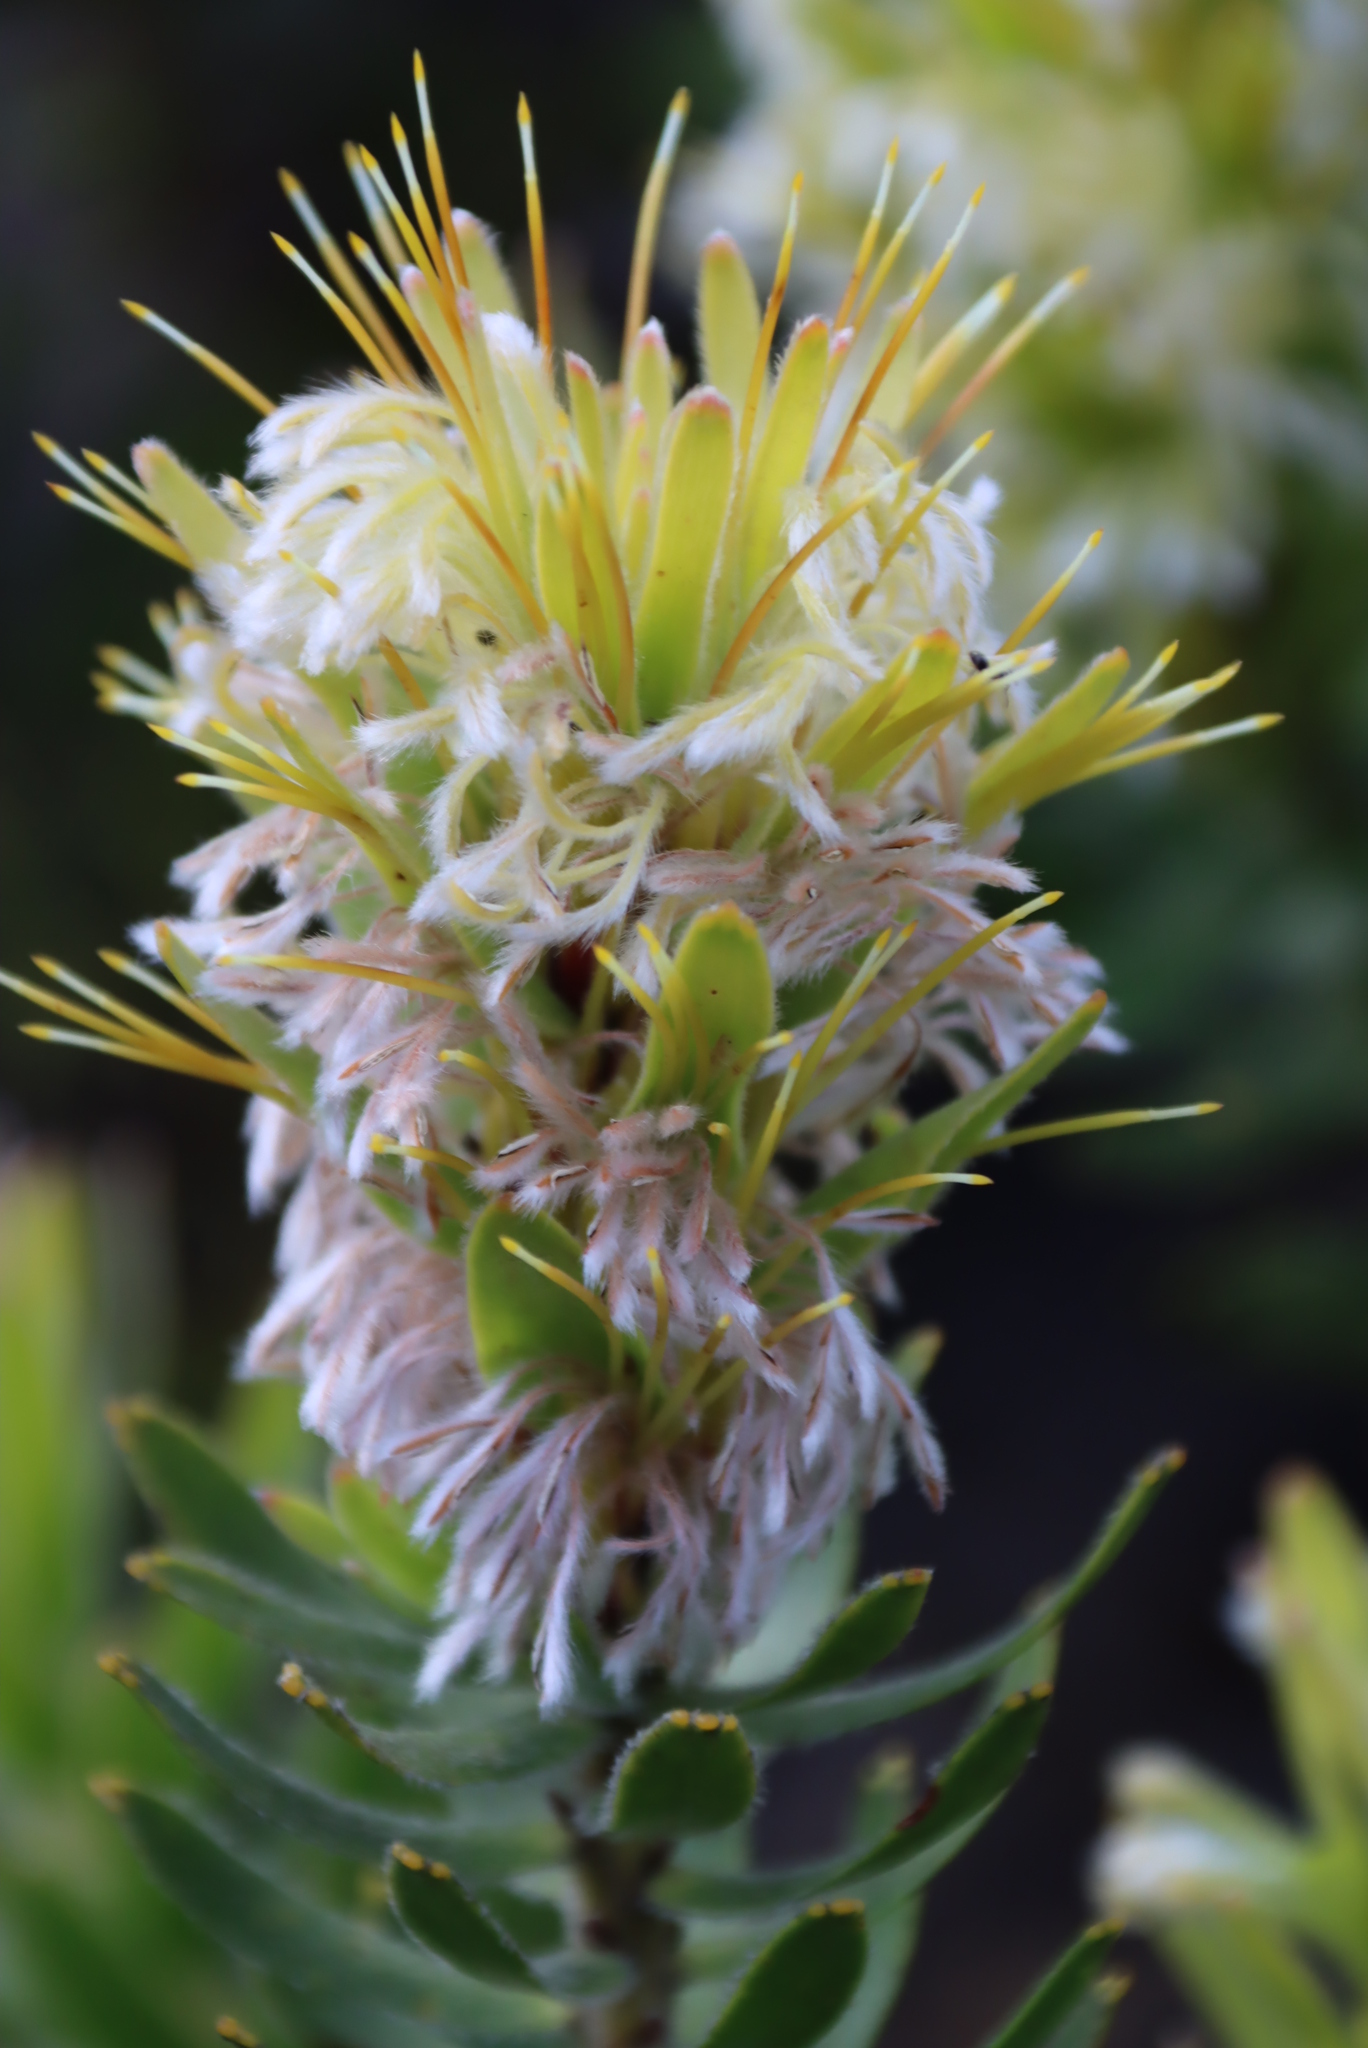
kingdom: Plantae
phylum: Tracheophyta
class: Magnoliopsida
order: Proteales
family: Proteaceae
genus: Mimetes
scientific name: Mimetes cucullatus
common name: Common pagoda
